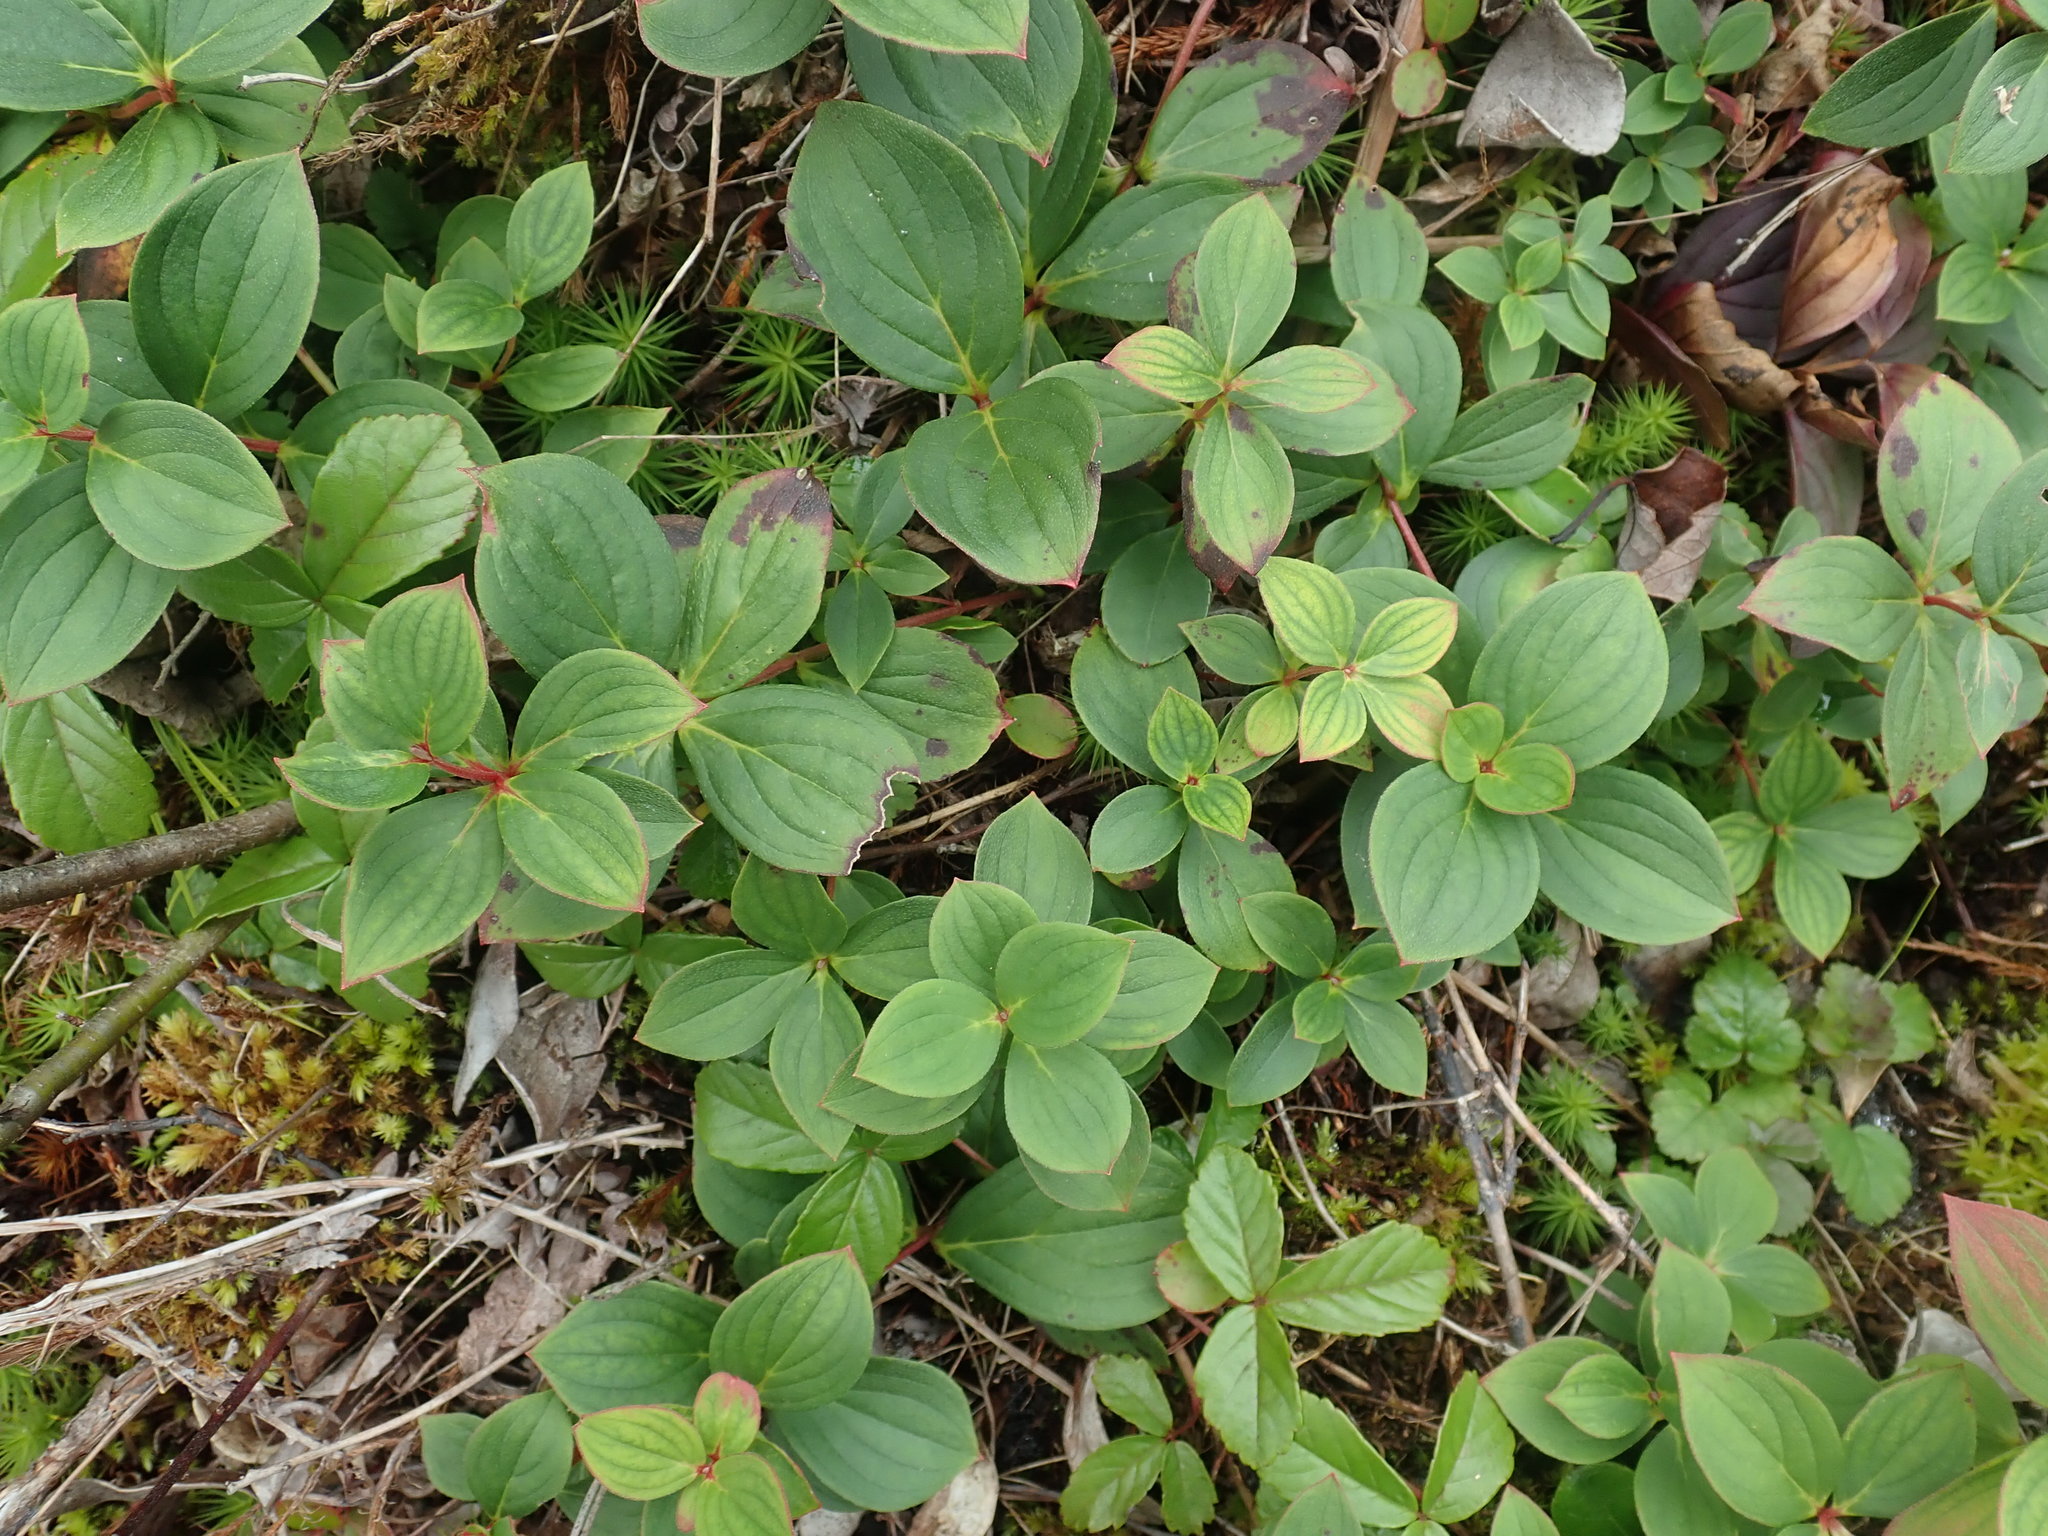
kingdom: Plantae
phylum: Tracheophyta
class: Magnoliopsida
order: Cornales
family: Cornaceae
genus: Cornus
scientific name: Cornus canadensis
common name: Creeping dogwood
